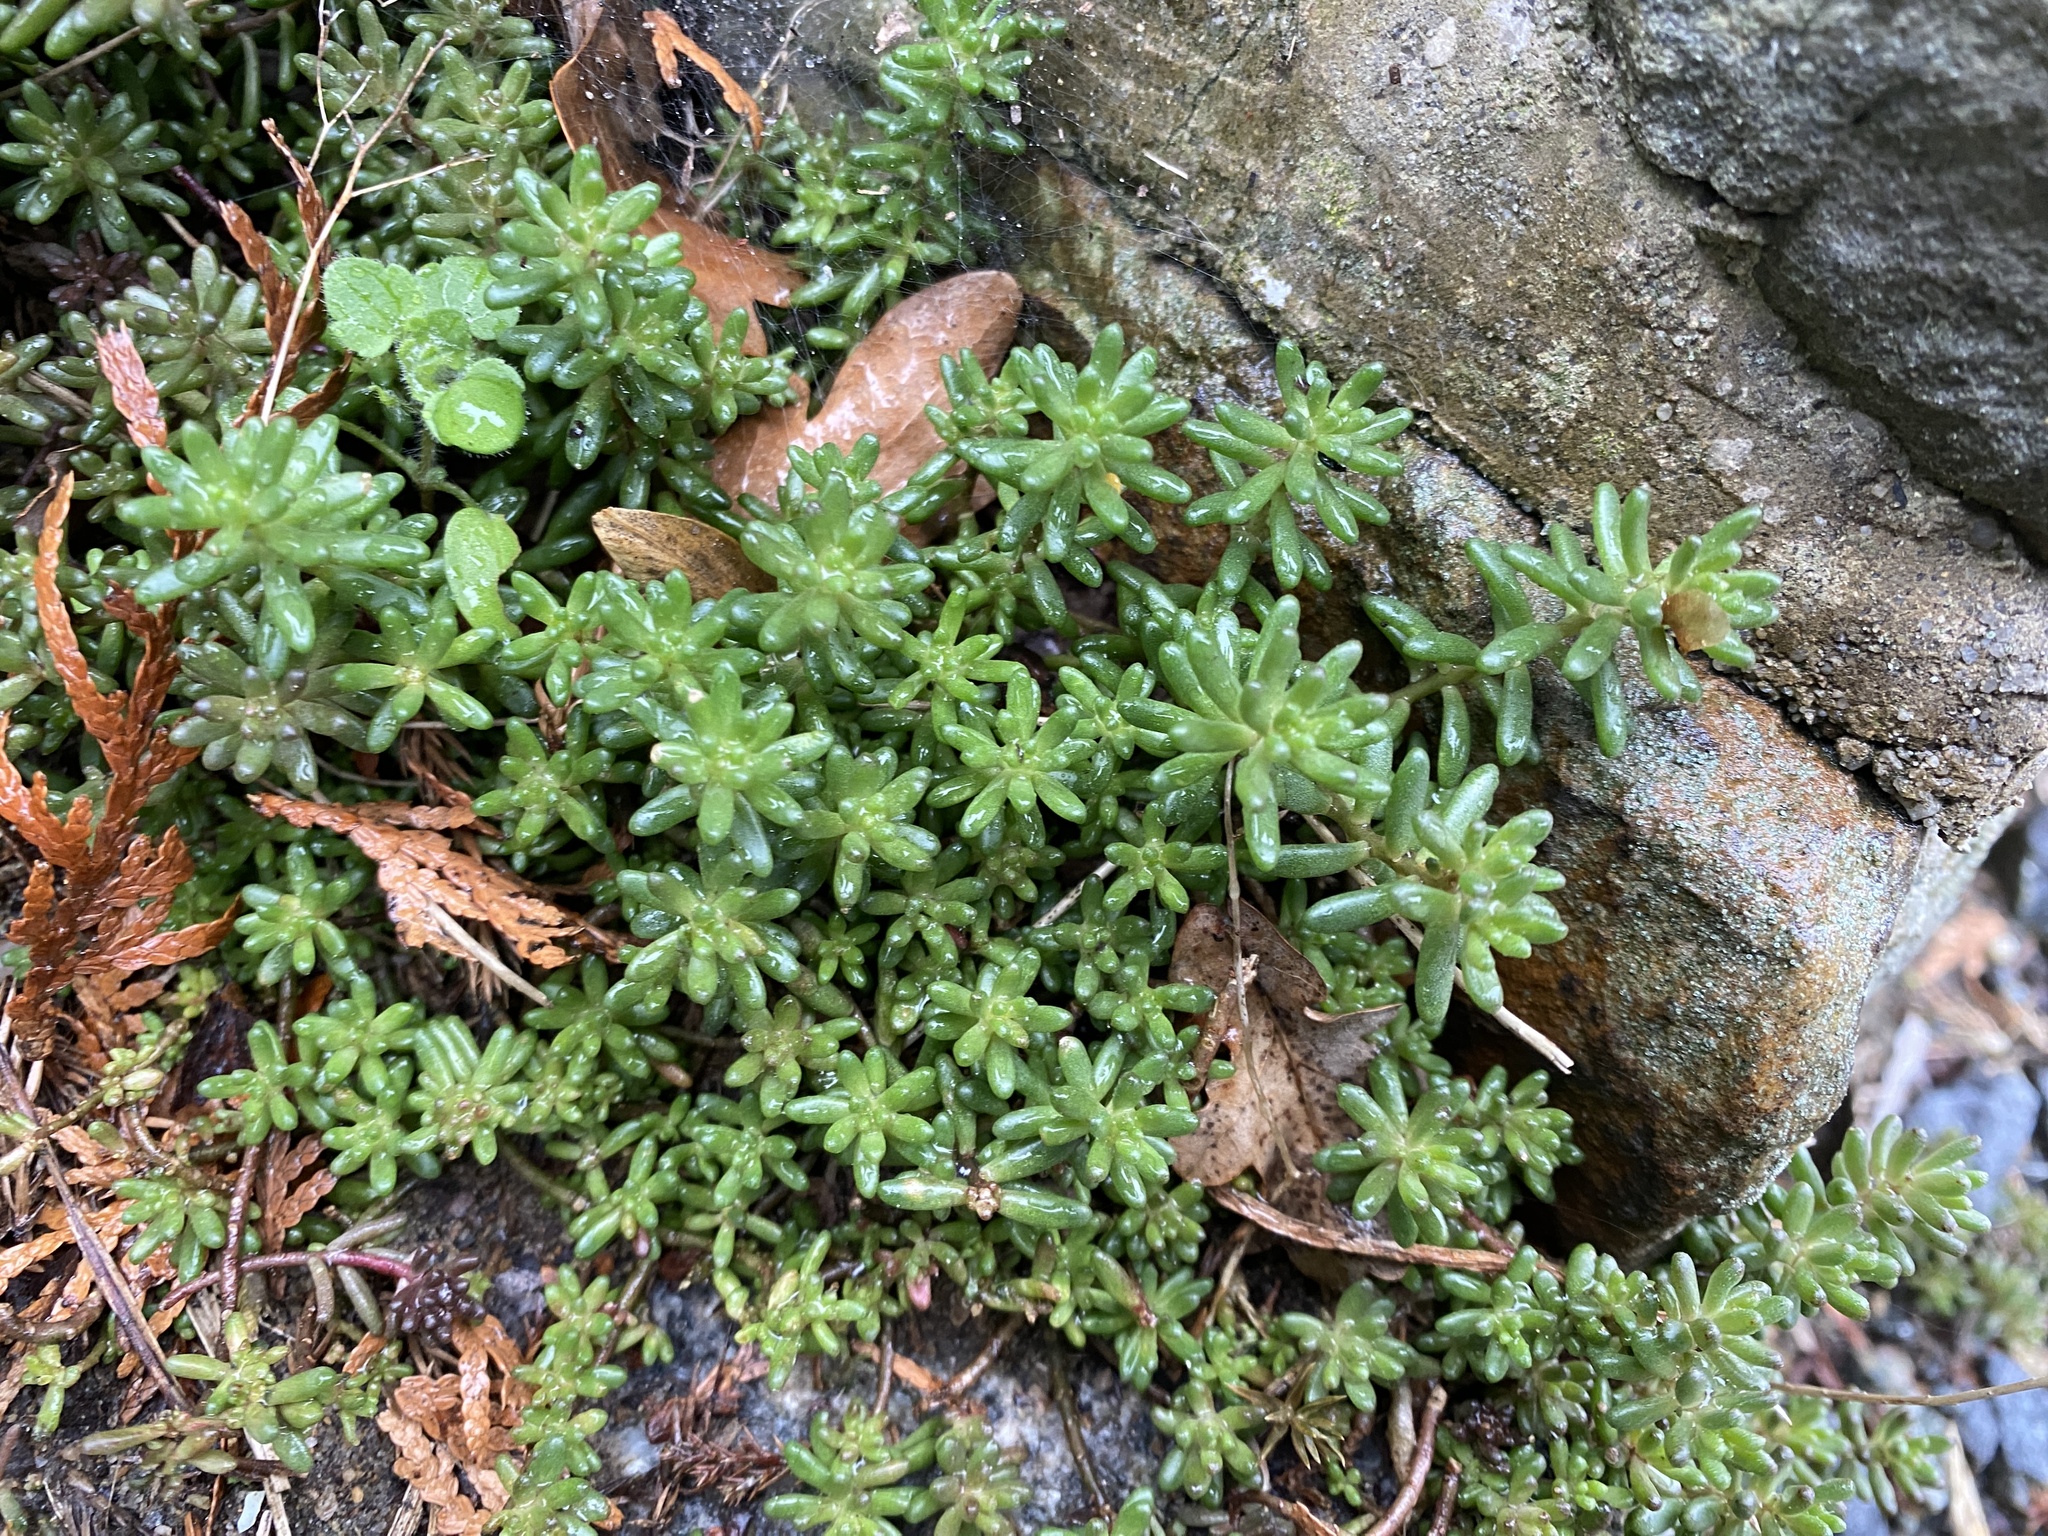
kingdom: Plantae
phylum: Tracheophyta
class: Magnoliopsida
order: Saxifragales
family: Crassulaceae
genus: Sedum
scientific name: Sedum album
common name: White stonecrop
